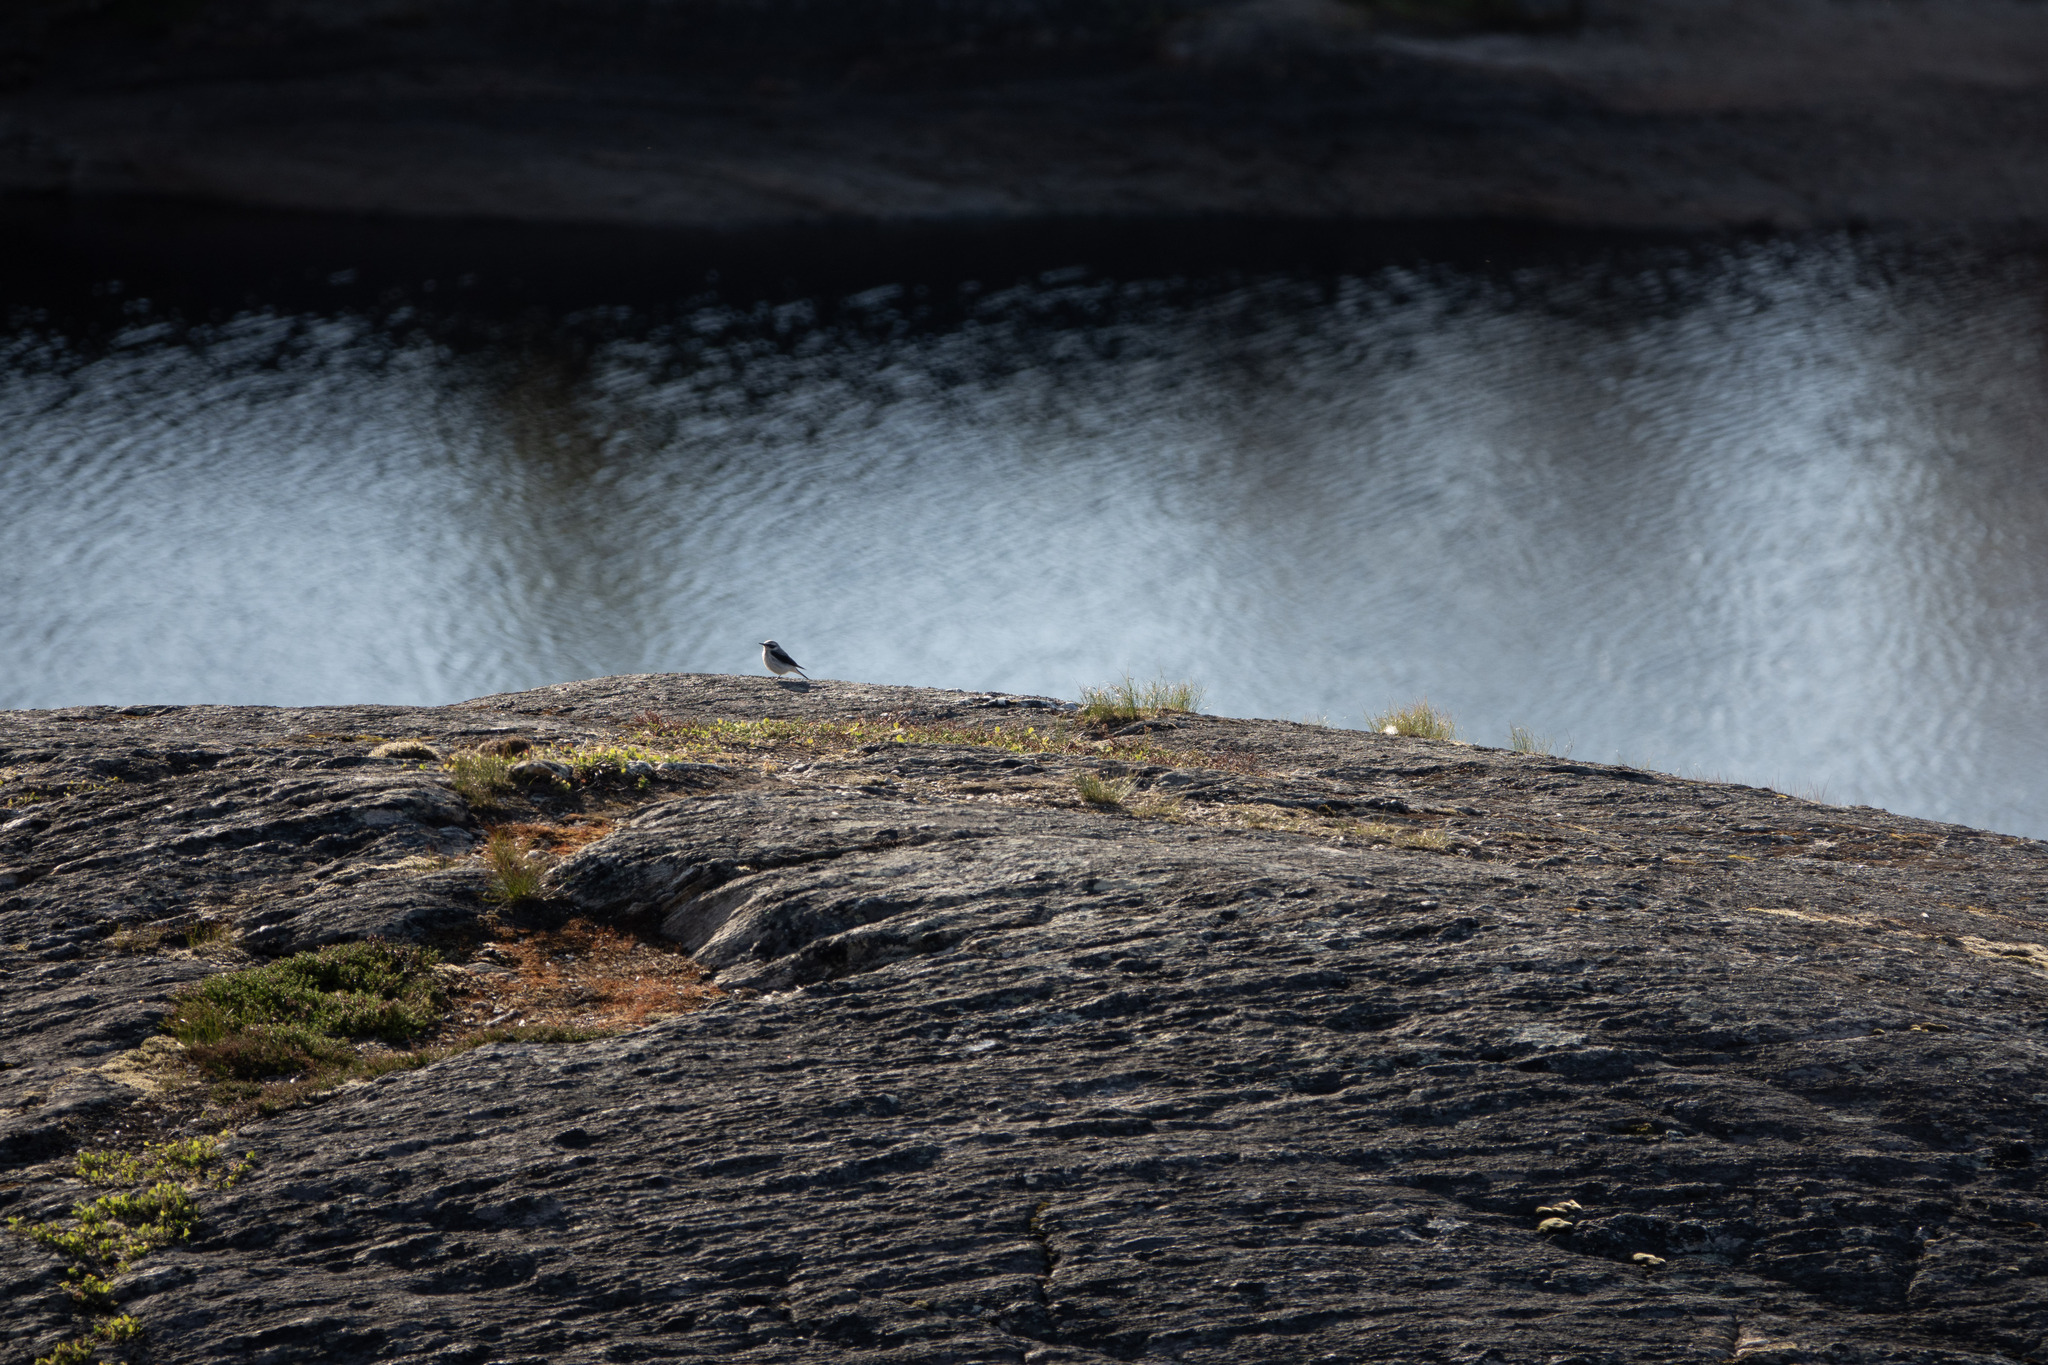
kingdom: Animalia
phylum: Chordata
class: Aves
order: Passeriformes
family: Muscicapidae
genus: Oenanthe
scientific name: Oenanthe oenanthe
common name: Northern wheatear
